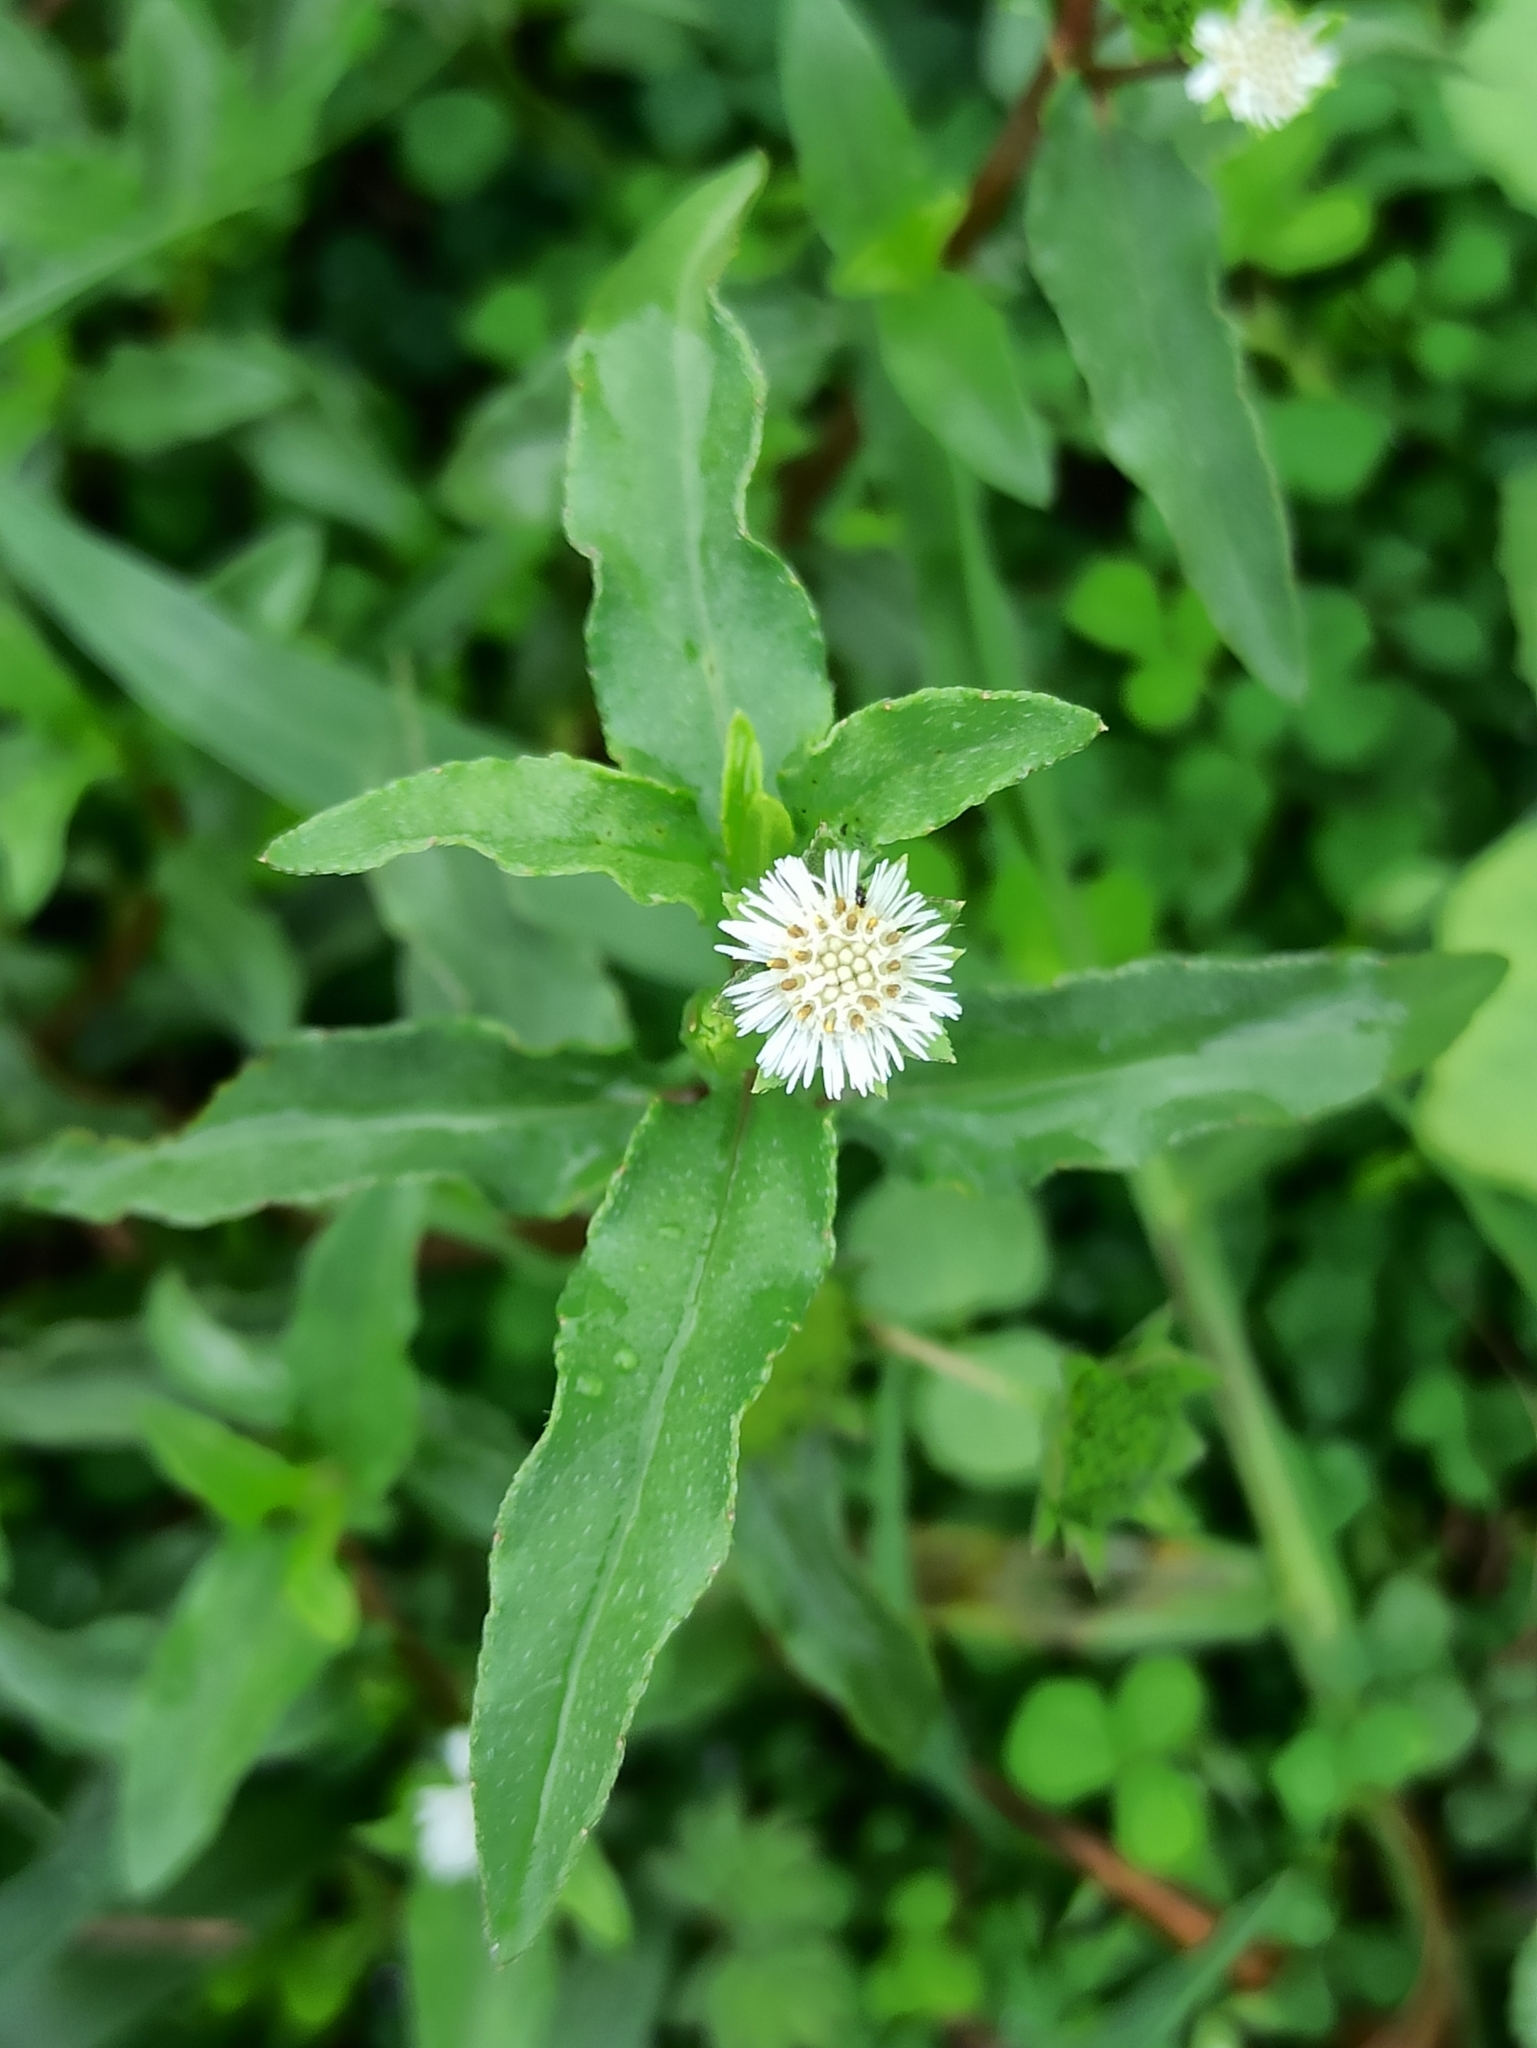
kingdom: Plantae
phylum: Tracheophyta
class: Magnoliopsida
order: Asterales
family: Asteraceae
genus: Eclipta
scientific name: Eclipta prostrata
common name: False daisy
